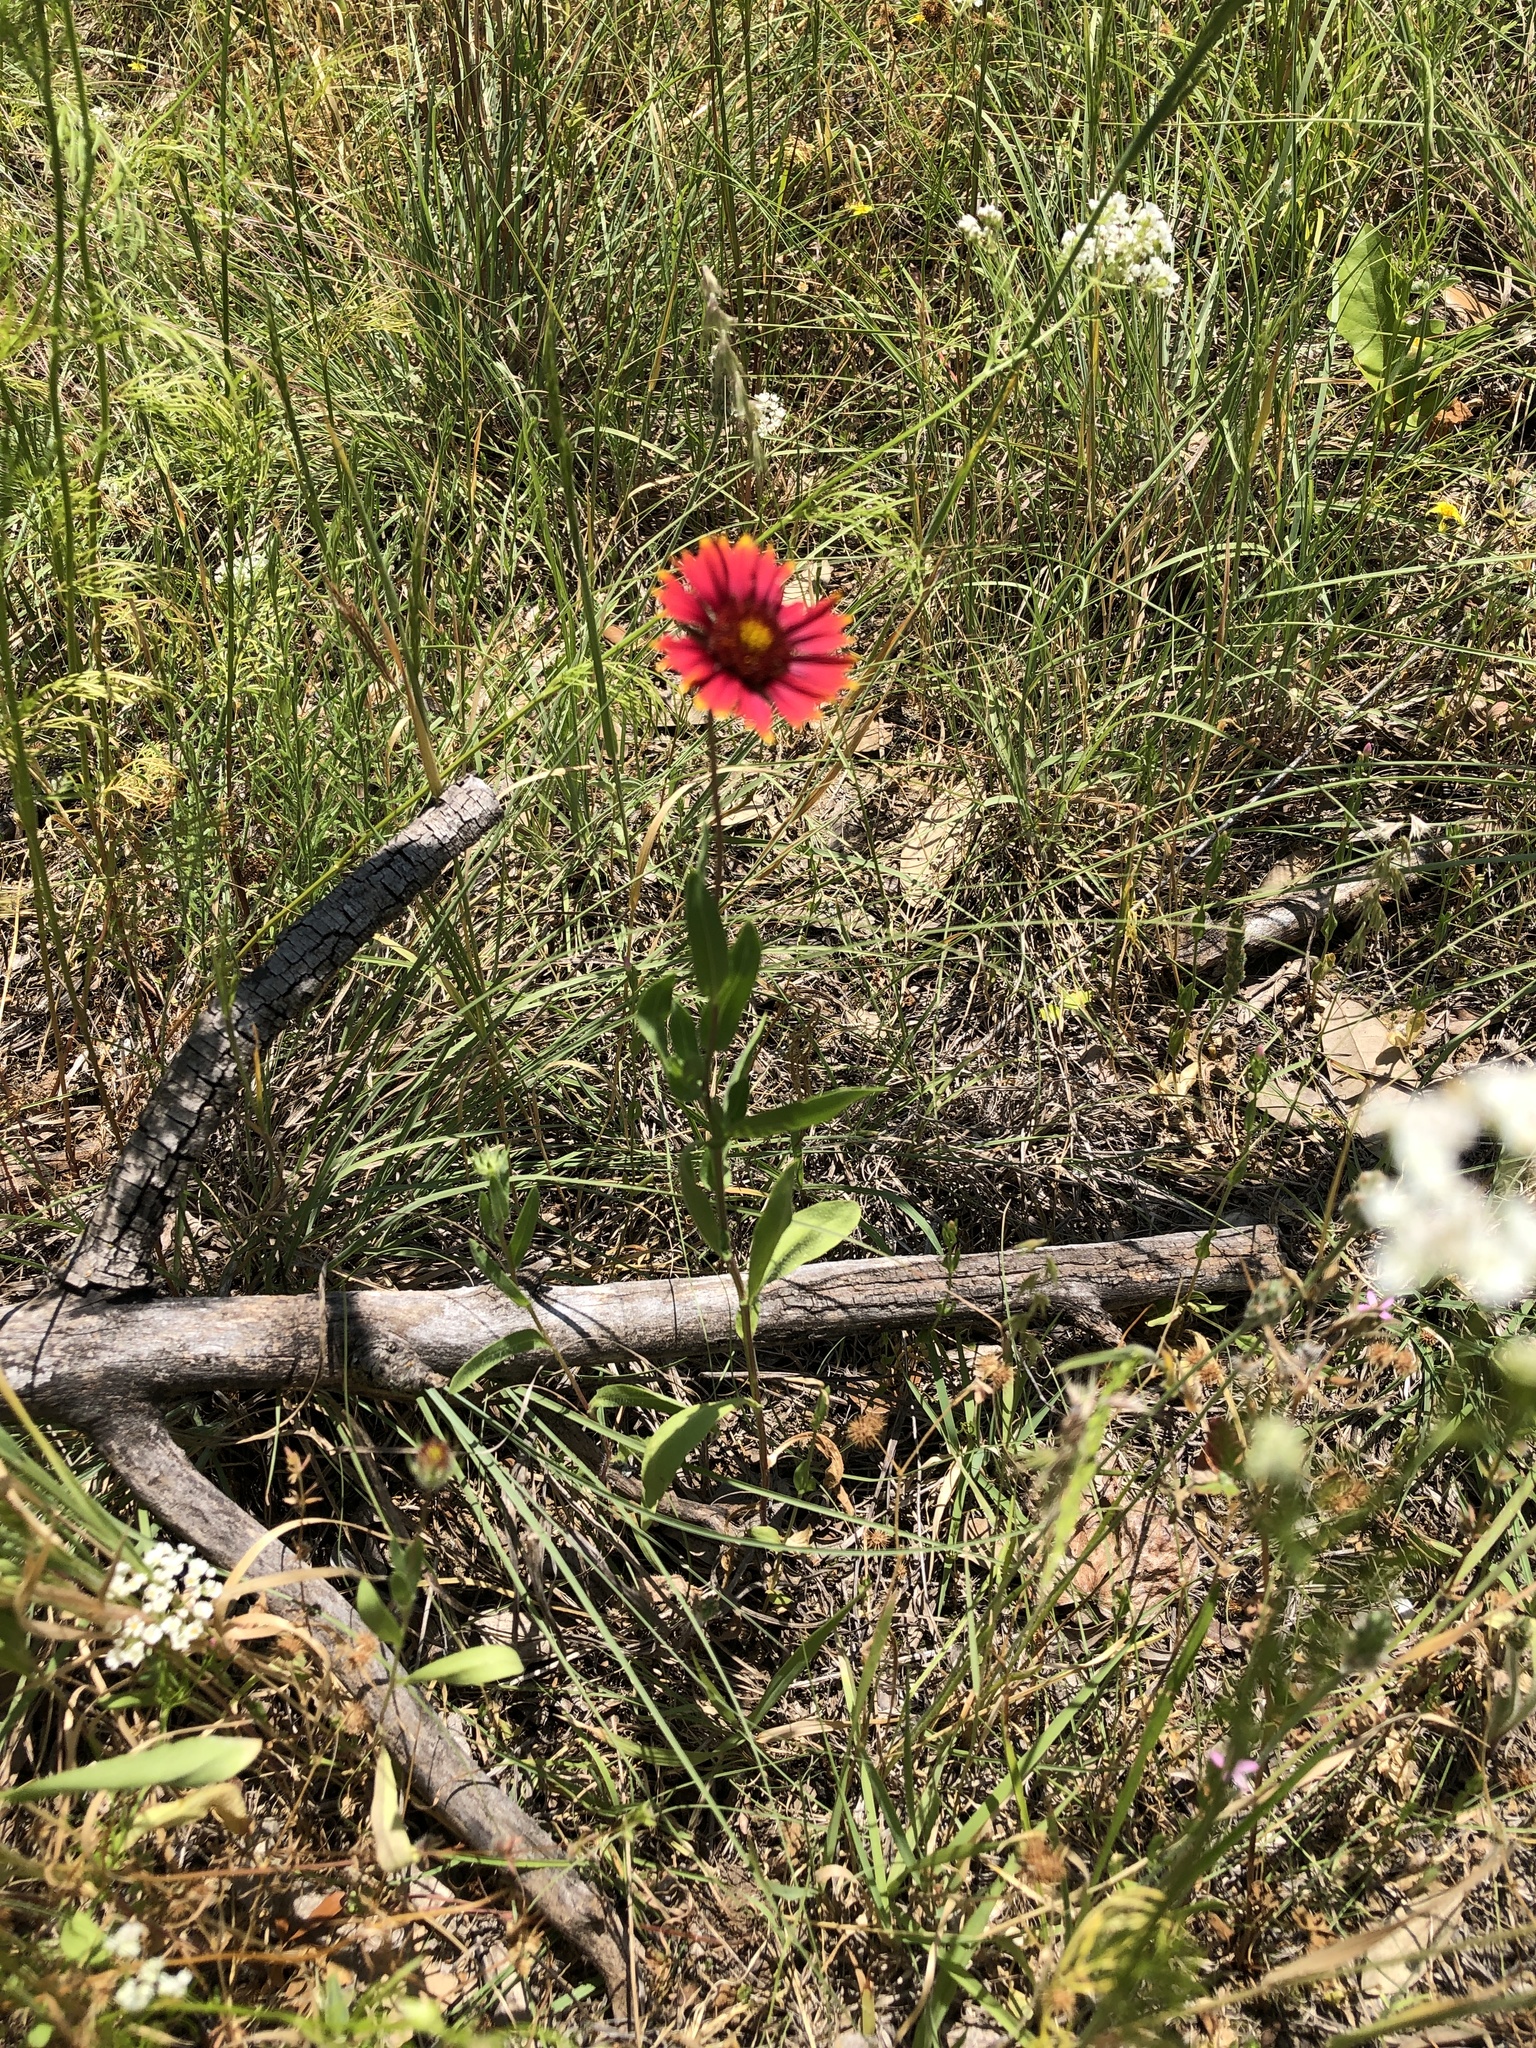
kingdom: Plantae
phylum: Tracheophyta
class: Magnoliopsida
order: Asterales
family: Asteraceae
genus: Gaillardia
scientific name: Gaillardia pulchella
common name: Firewheel
